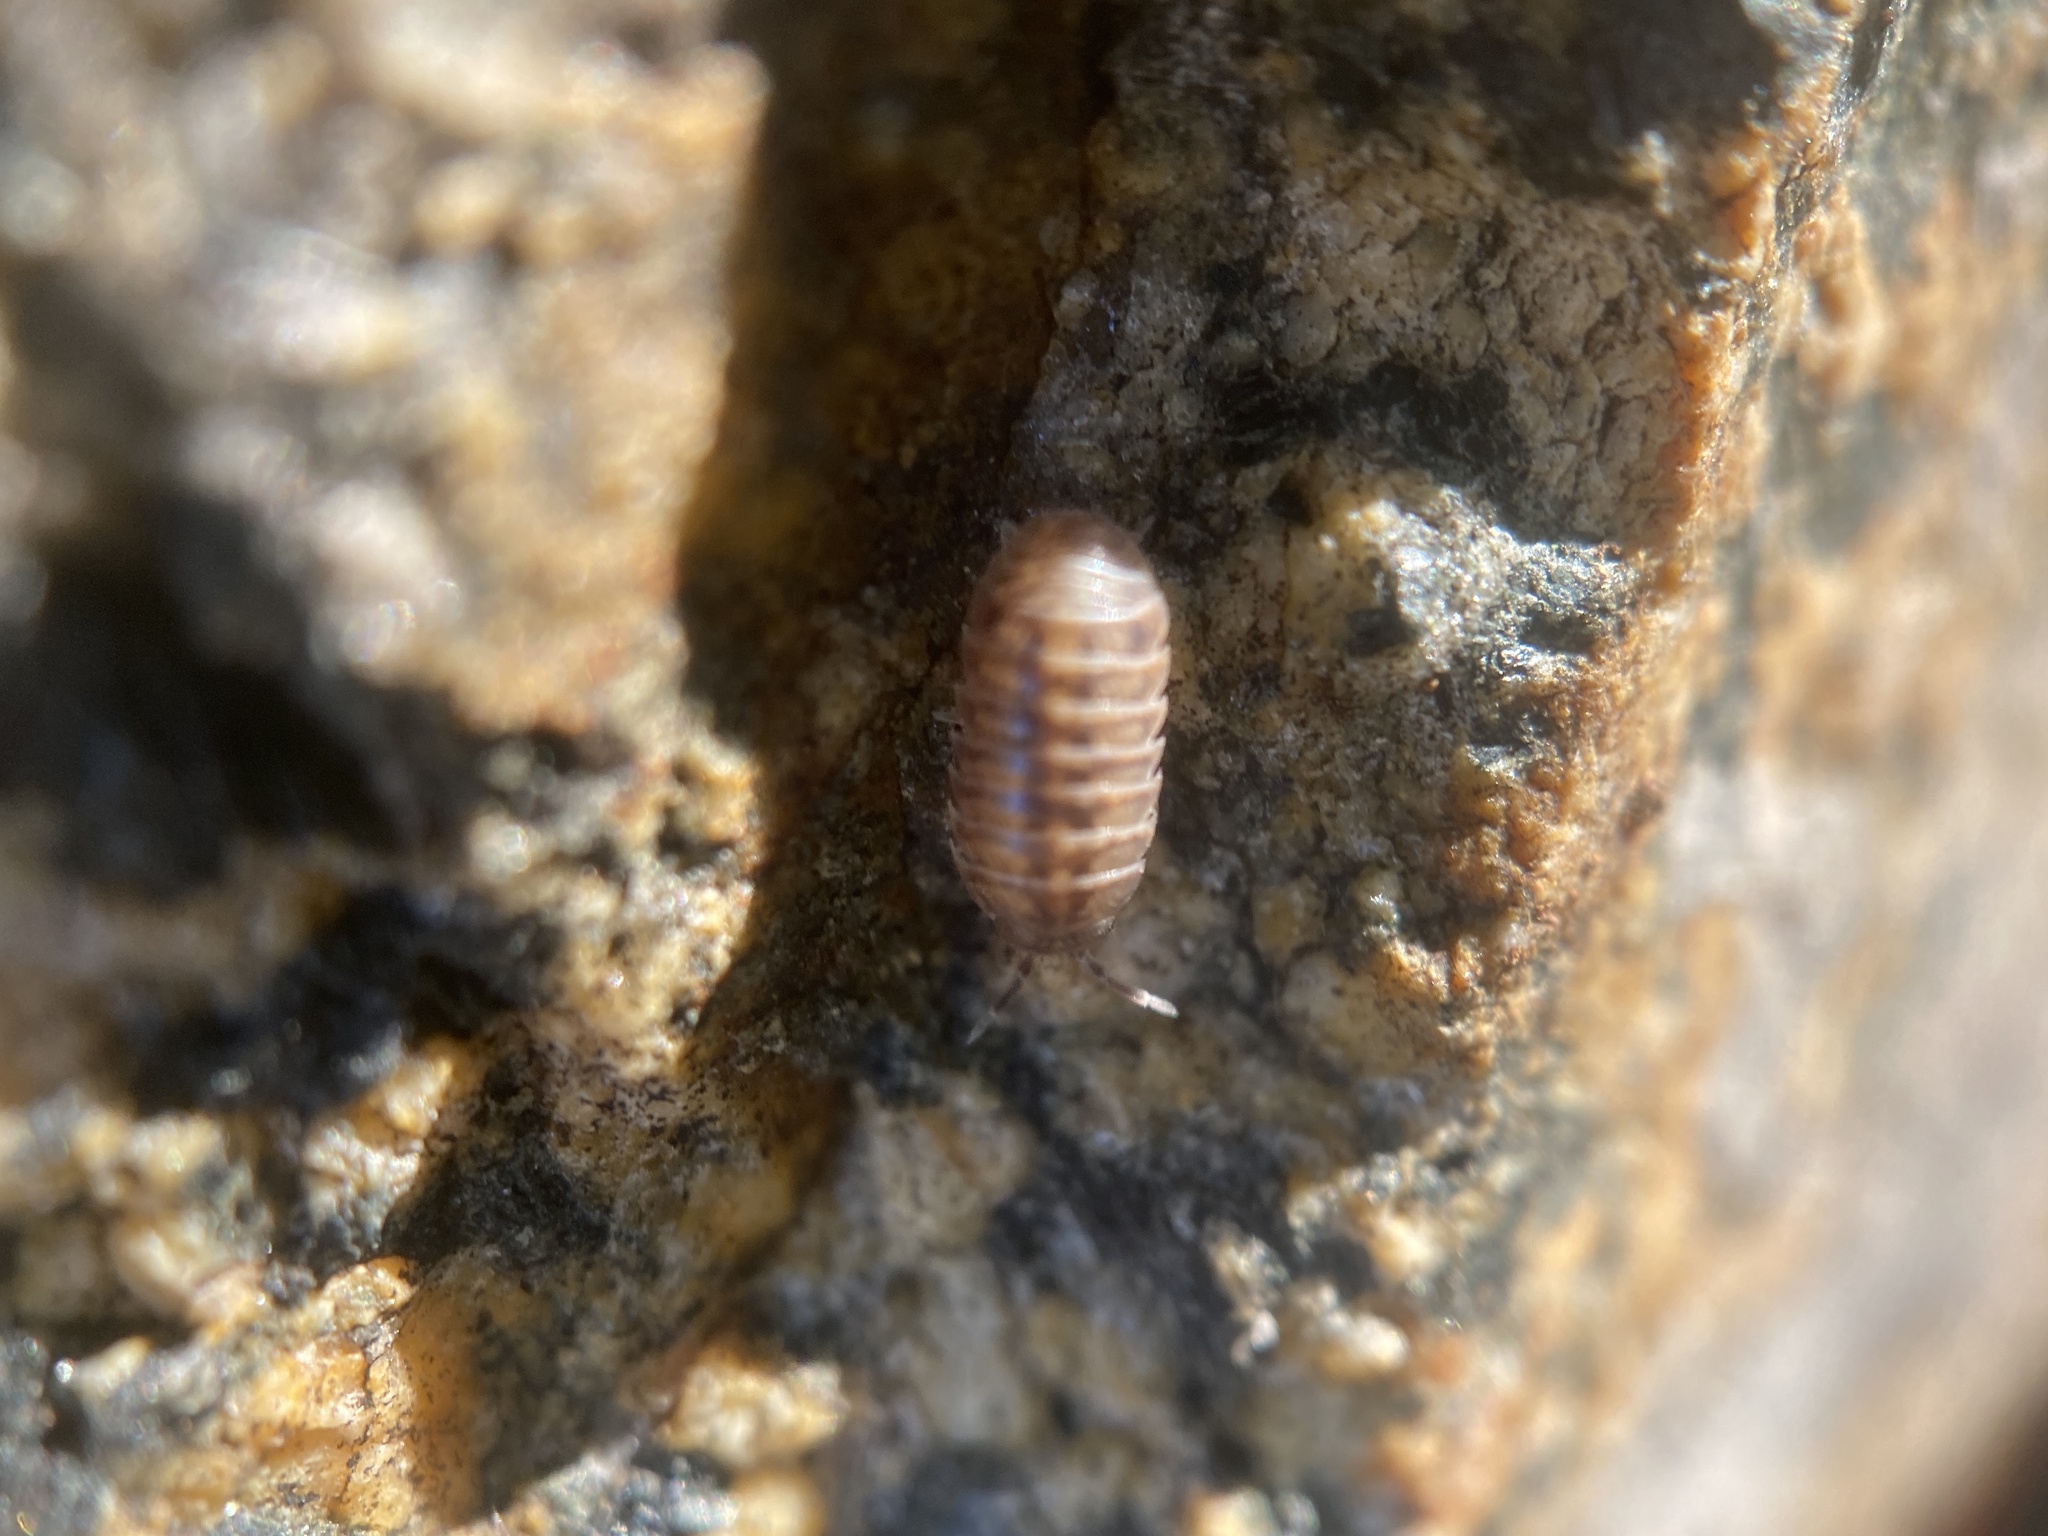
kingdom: Animalia
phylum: Arthropoda
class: Malacostraca
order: Isopoda
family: Armadillidiidae
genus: Armadillidium
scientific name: Armadillidium vulgare
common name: Common pill woodlouse
